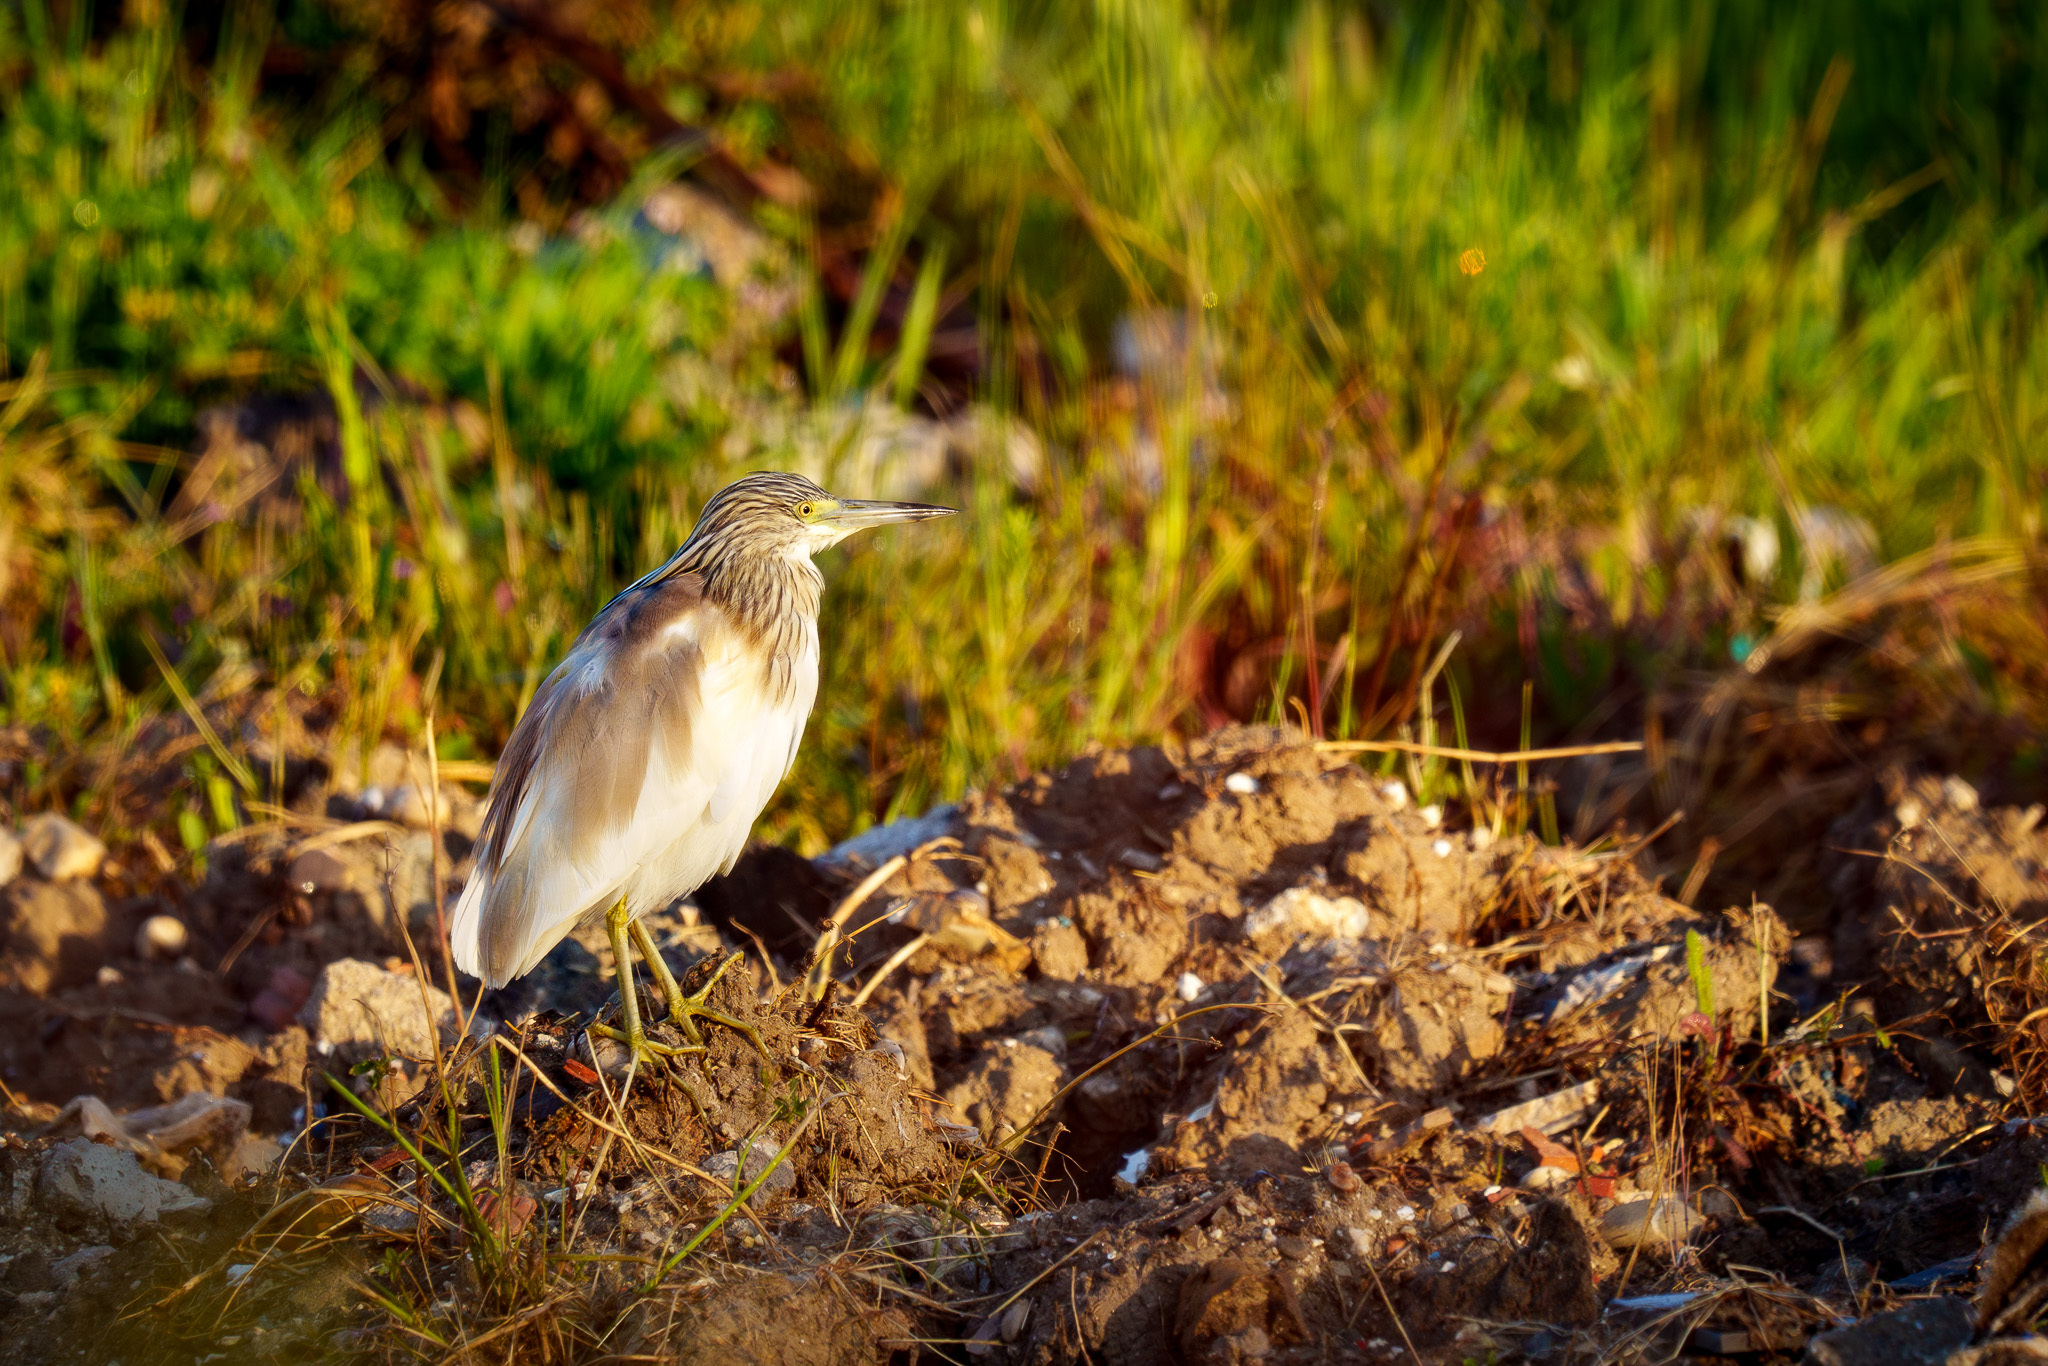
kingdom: Animalia
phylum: Chordata
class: Aves
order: Pelecaniformes
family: Ardeidae
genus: Ardeola
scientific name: Ardeola ralloides
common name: Squacco heron
